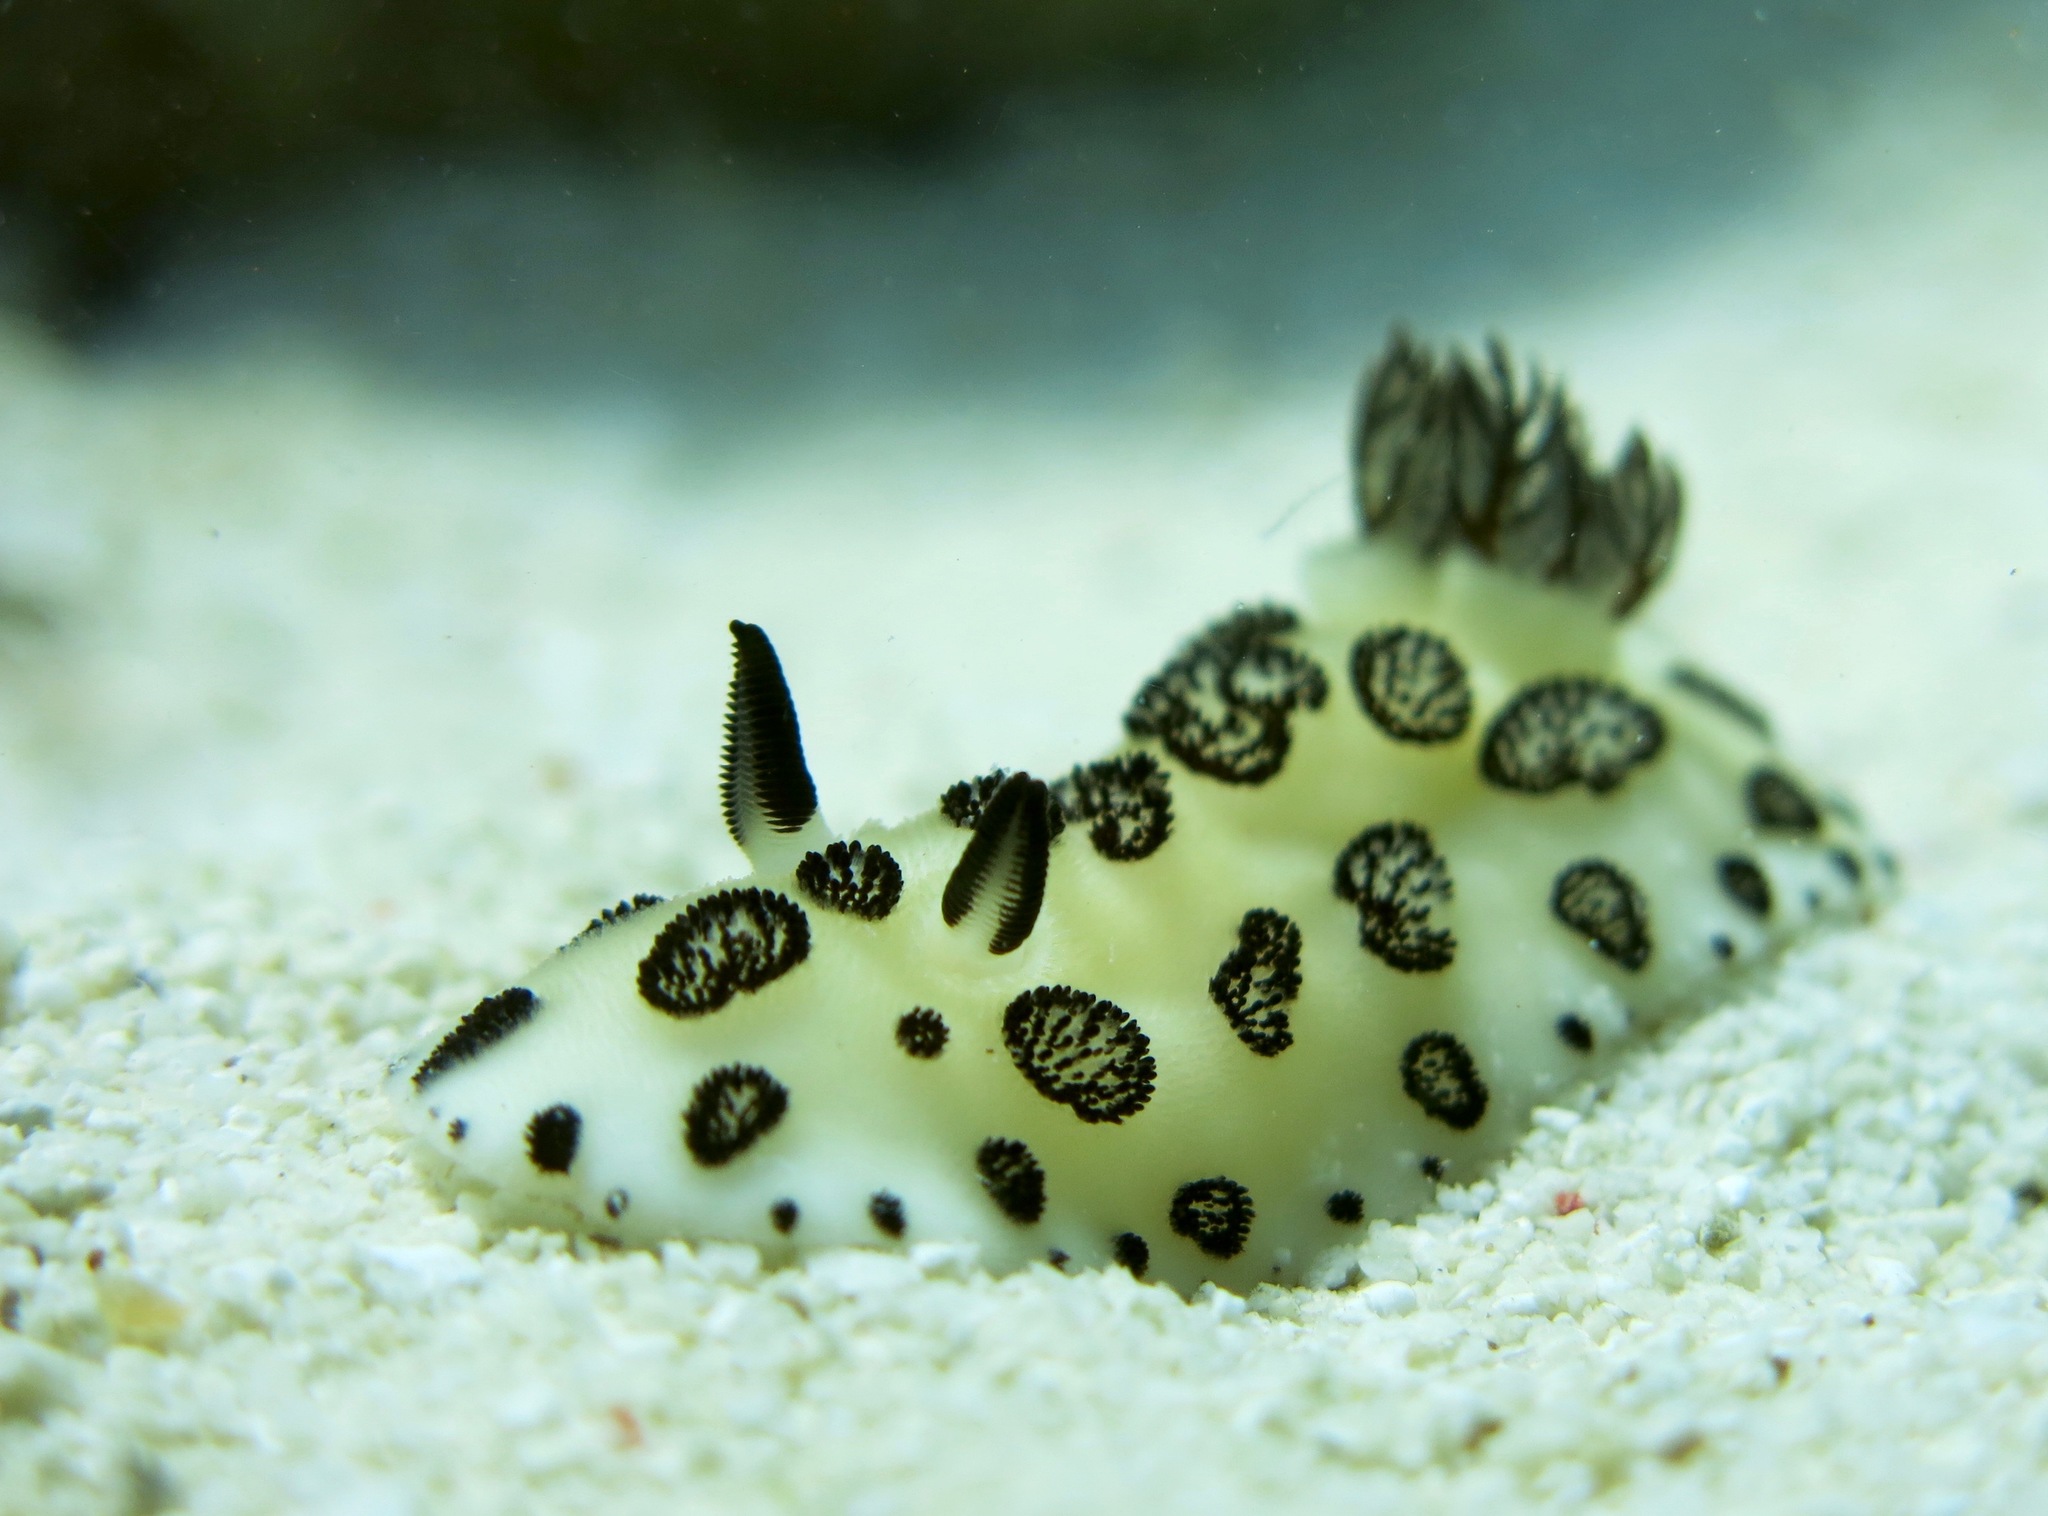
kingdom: Animalia
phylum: Mollusca
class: Gastropoda
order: Nudibranchia
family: Discodorididae
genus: Jorunna
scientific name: Jorunna funebris
